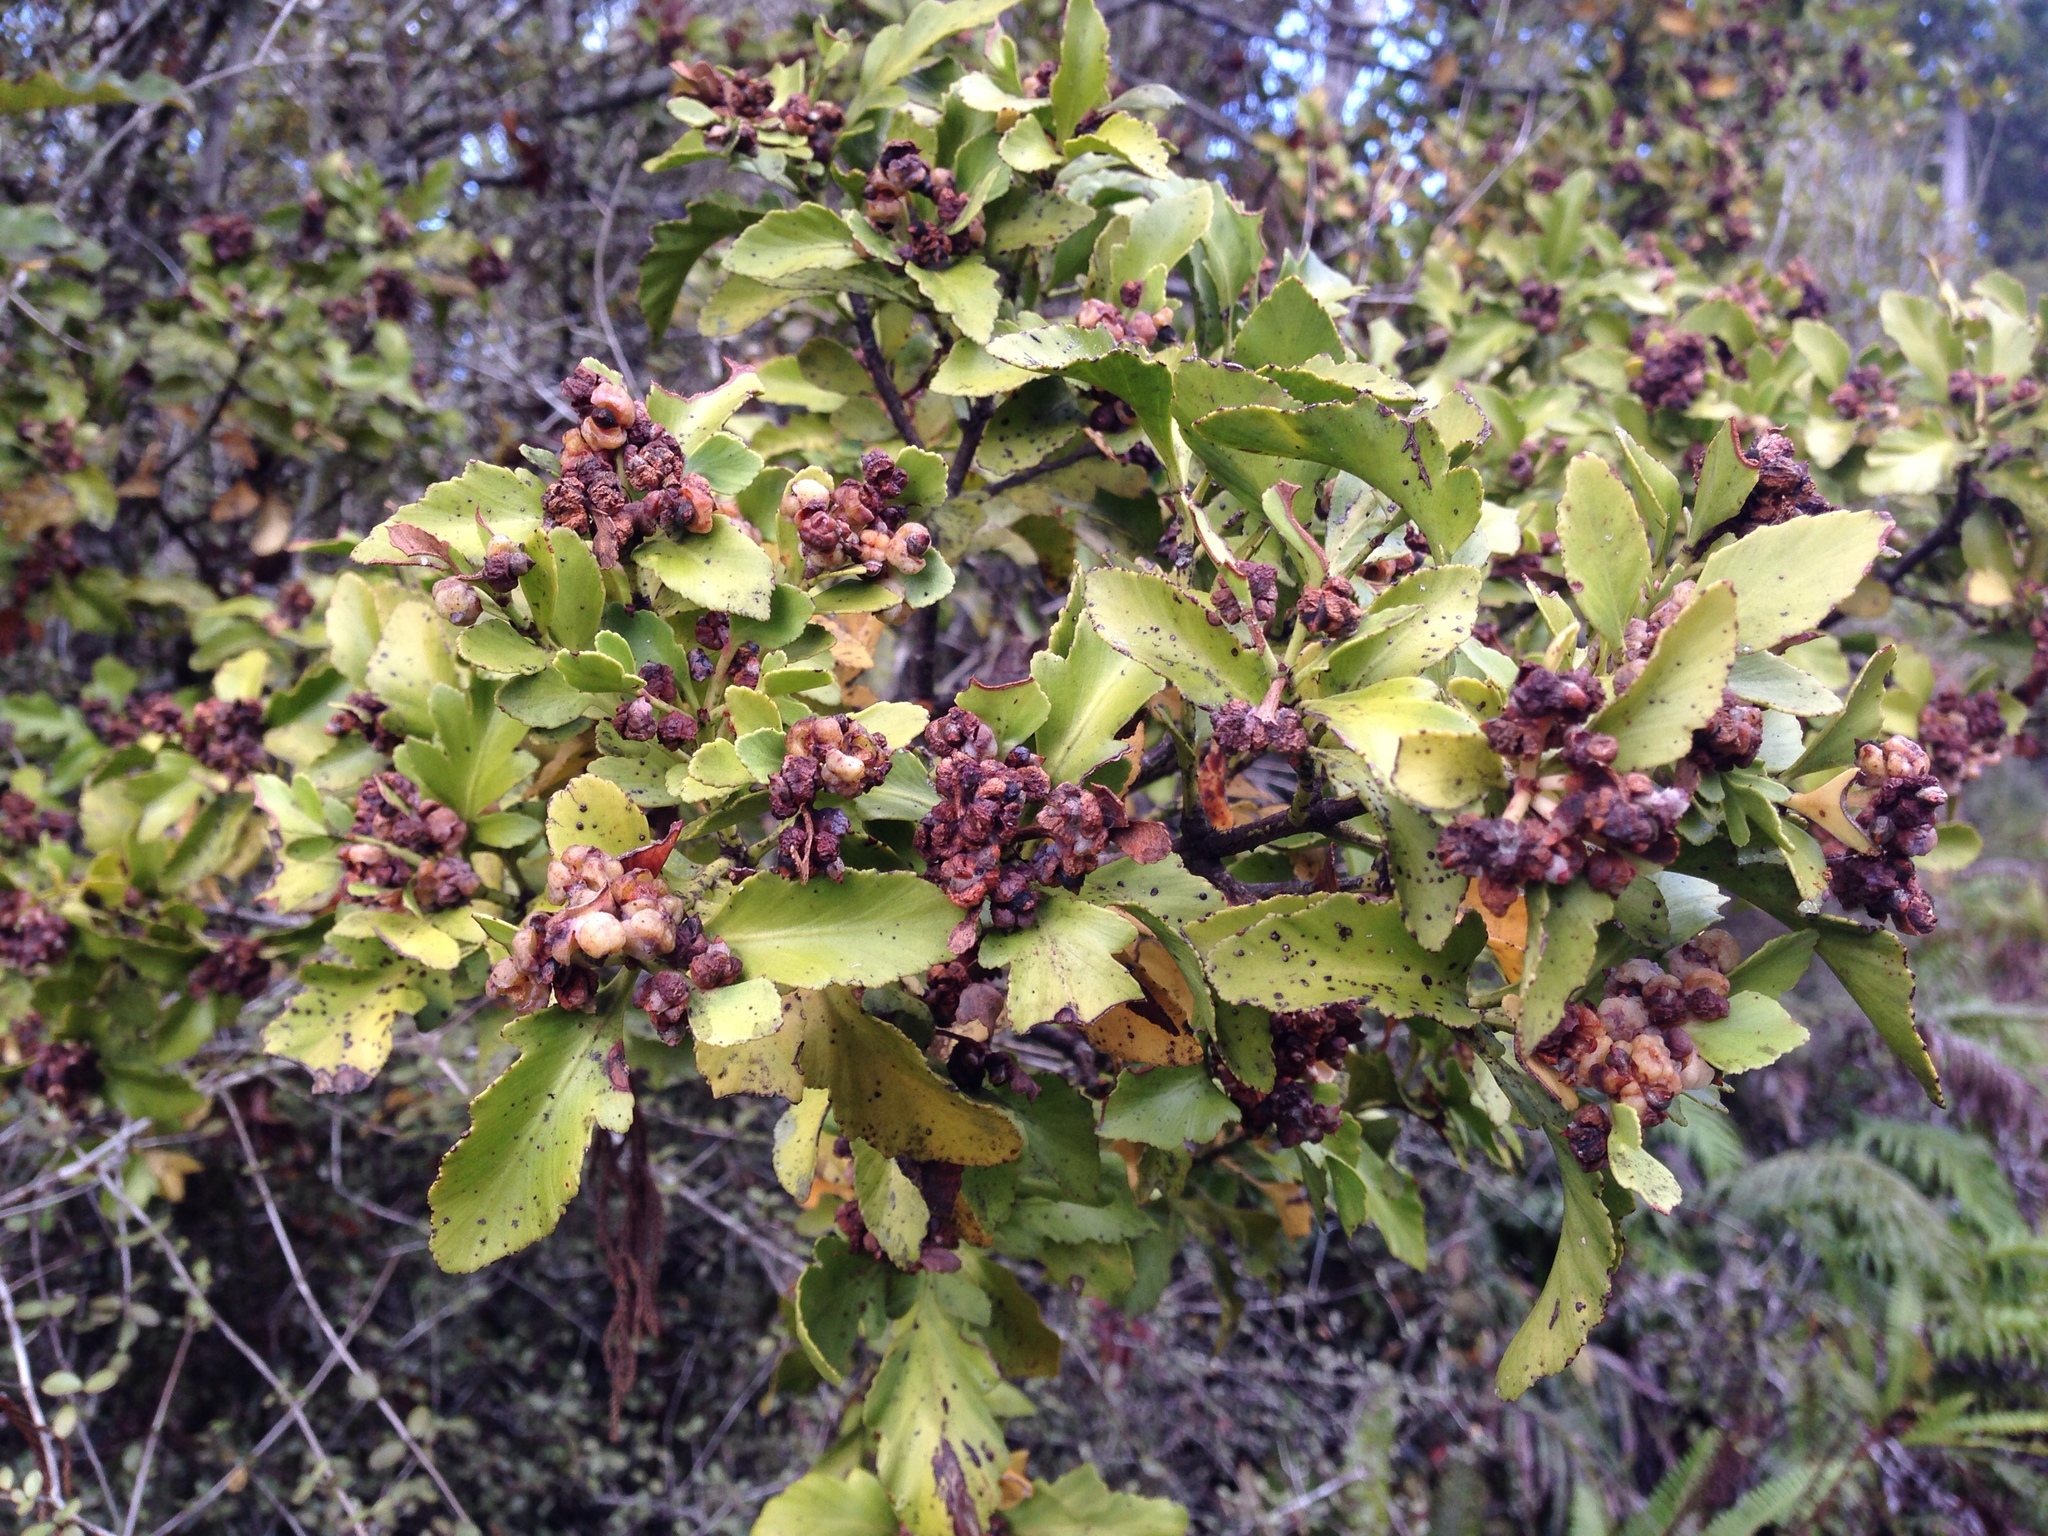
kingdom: Plantae
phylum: Tracheophyta
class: Pinopsida
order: Pinales
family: Phyllocladaceae
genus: Phyllocladus
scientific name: Phyllocladus trichomanoides
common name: Celery pine
